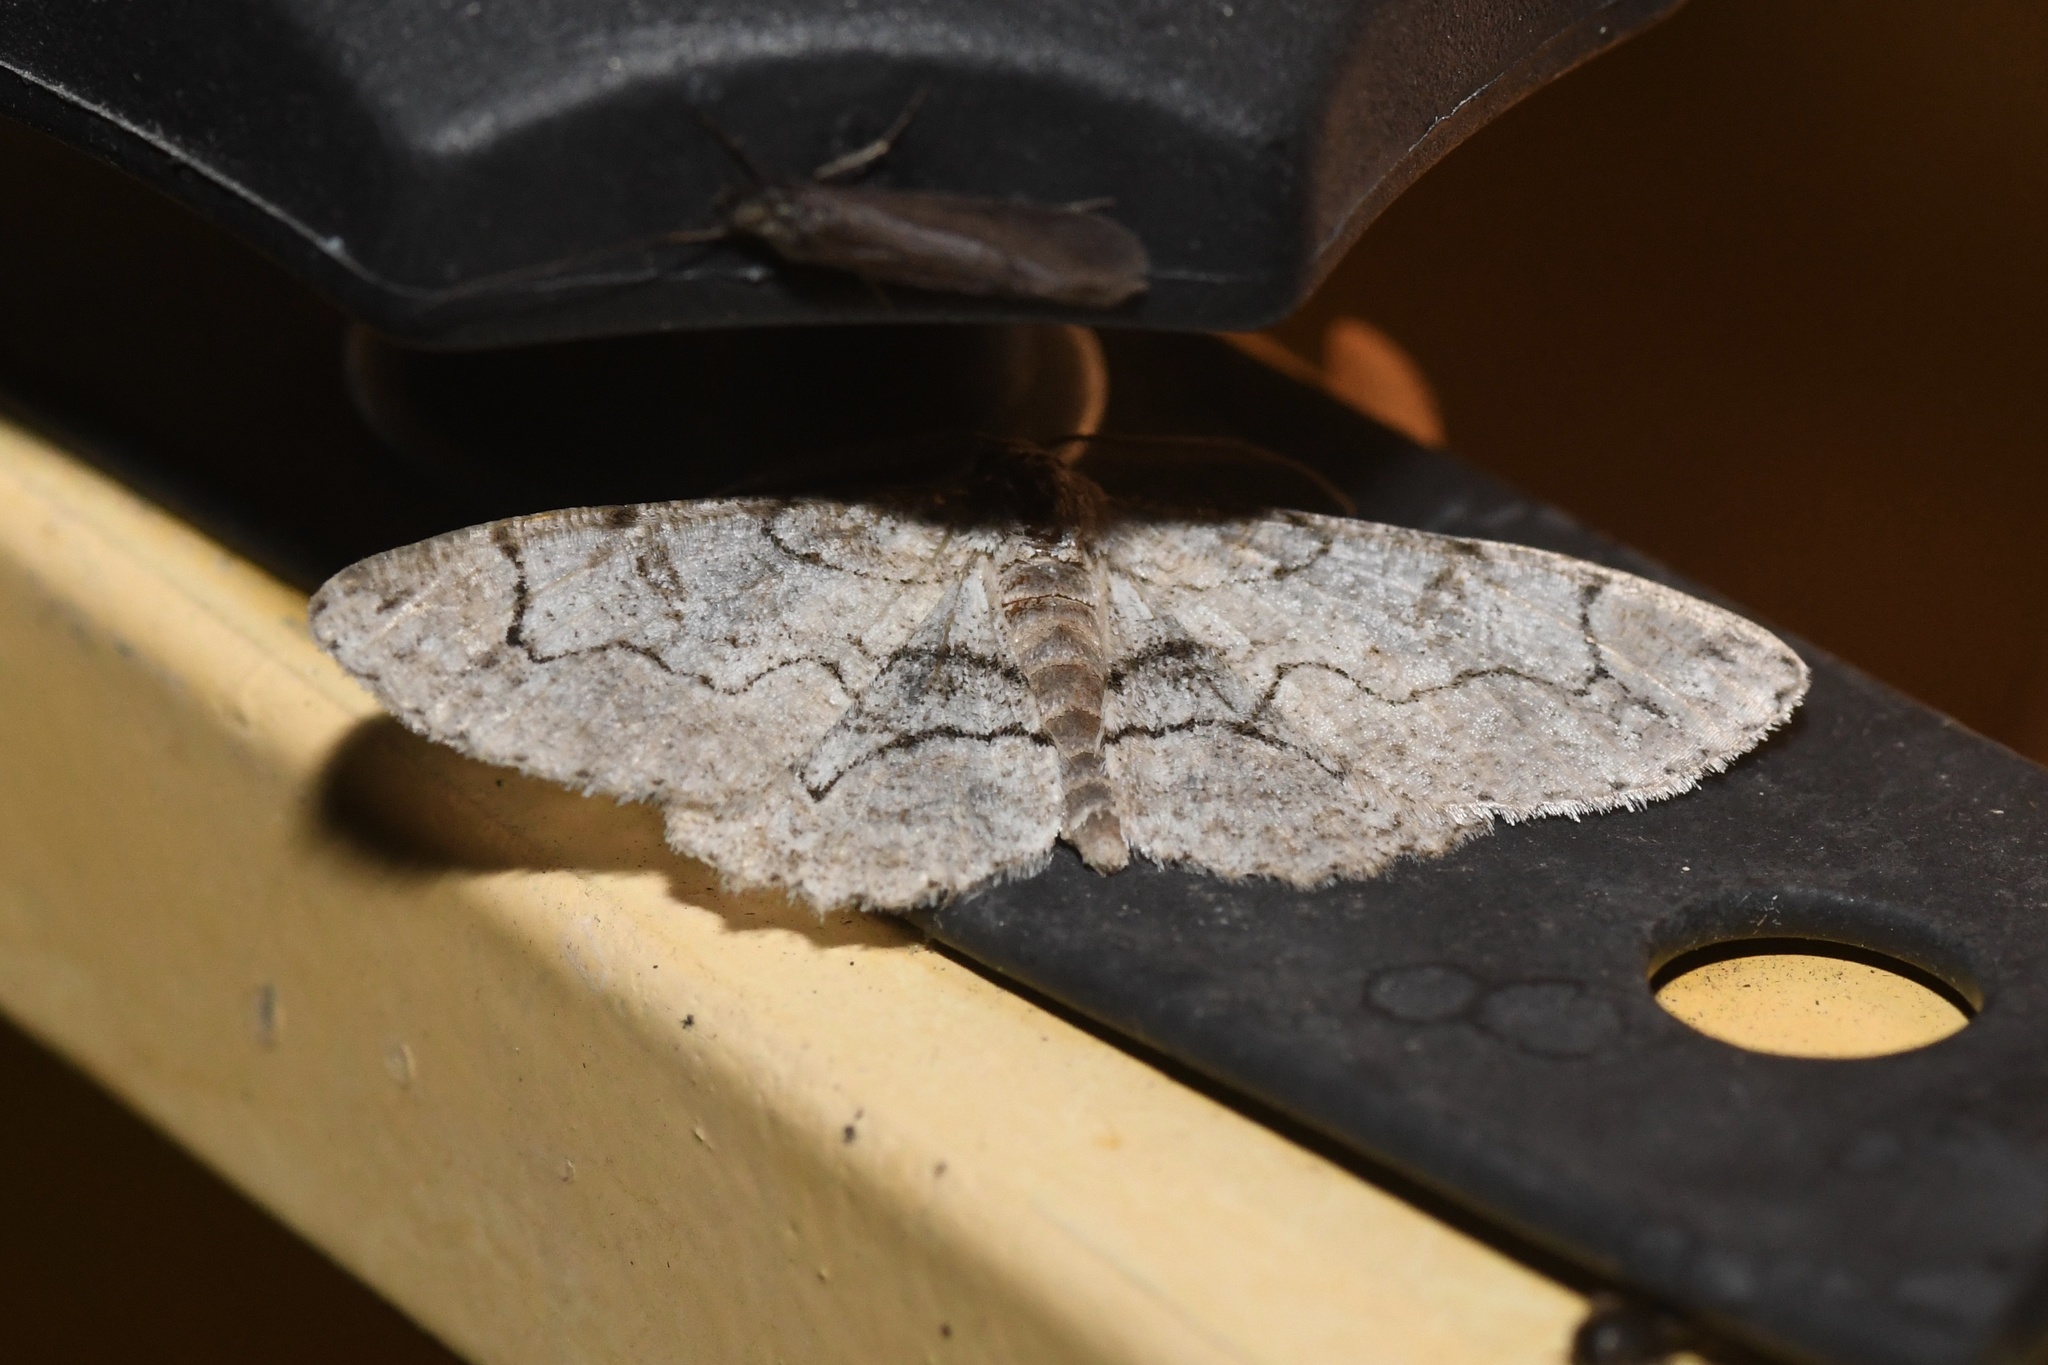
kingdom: Animalia
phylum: Arthropoda
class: Insecta
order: Lepidoptera
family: Geometridae
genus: Iridopsis
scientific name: Iridopsis larvaria
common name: Bent-line gray
